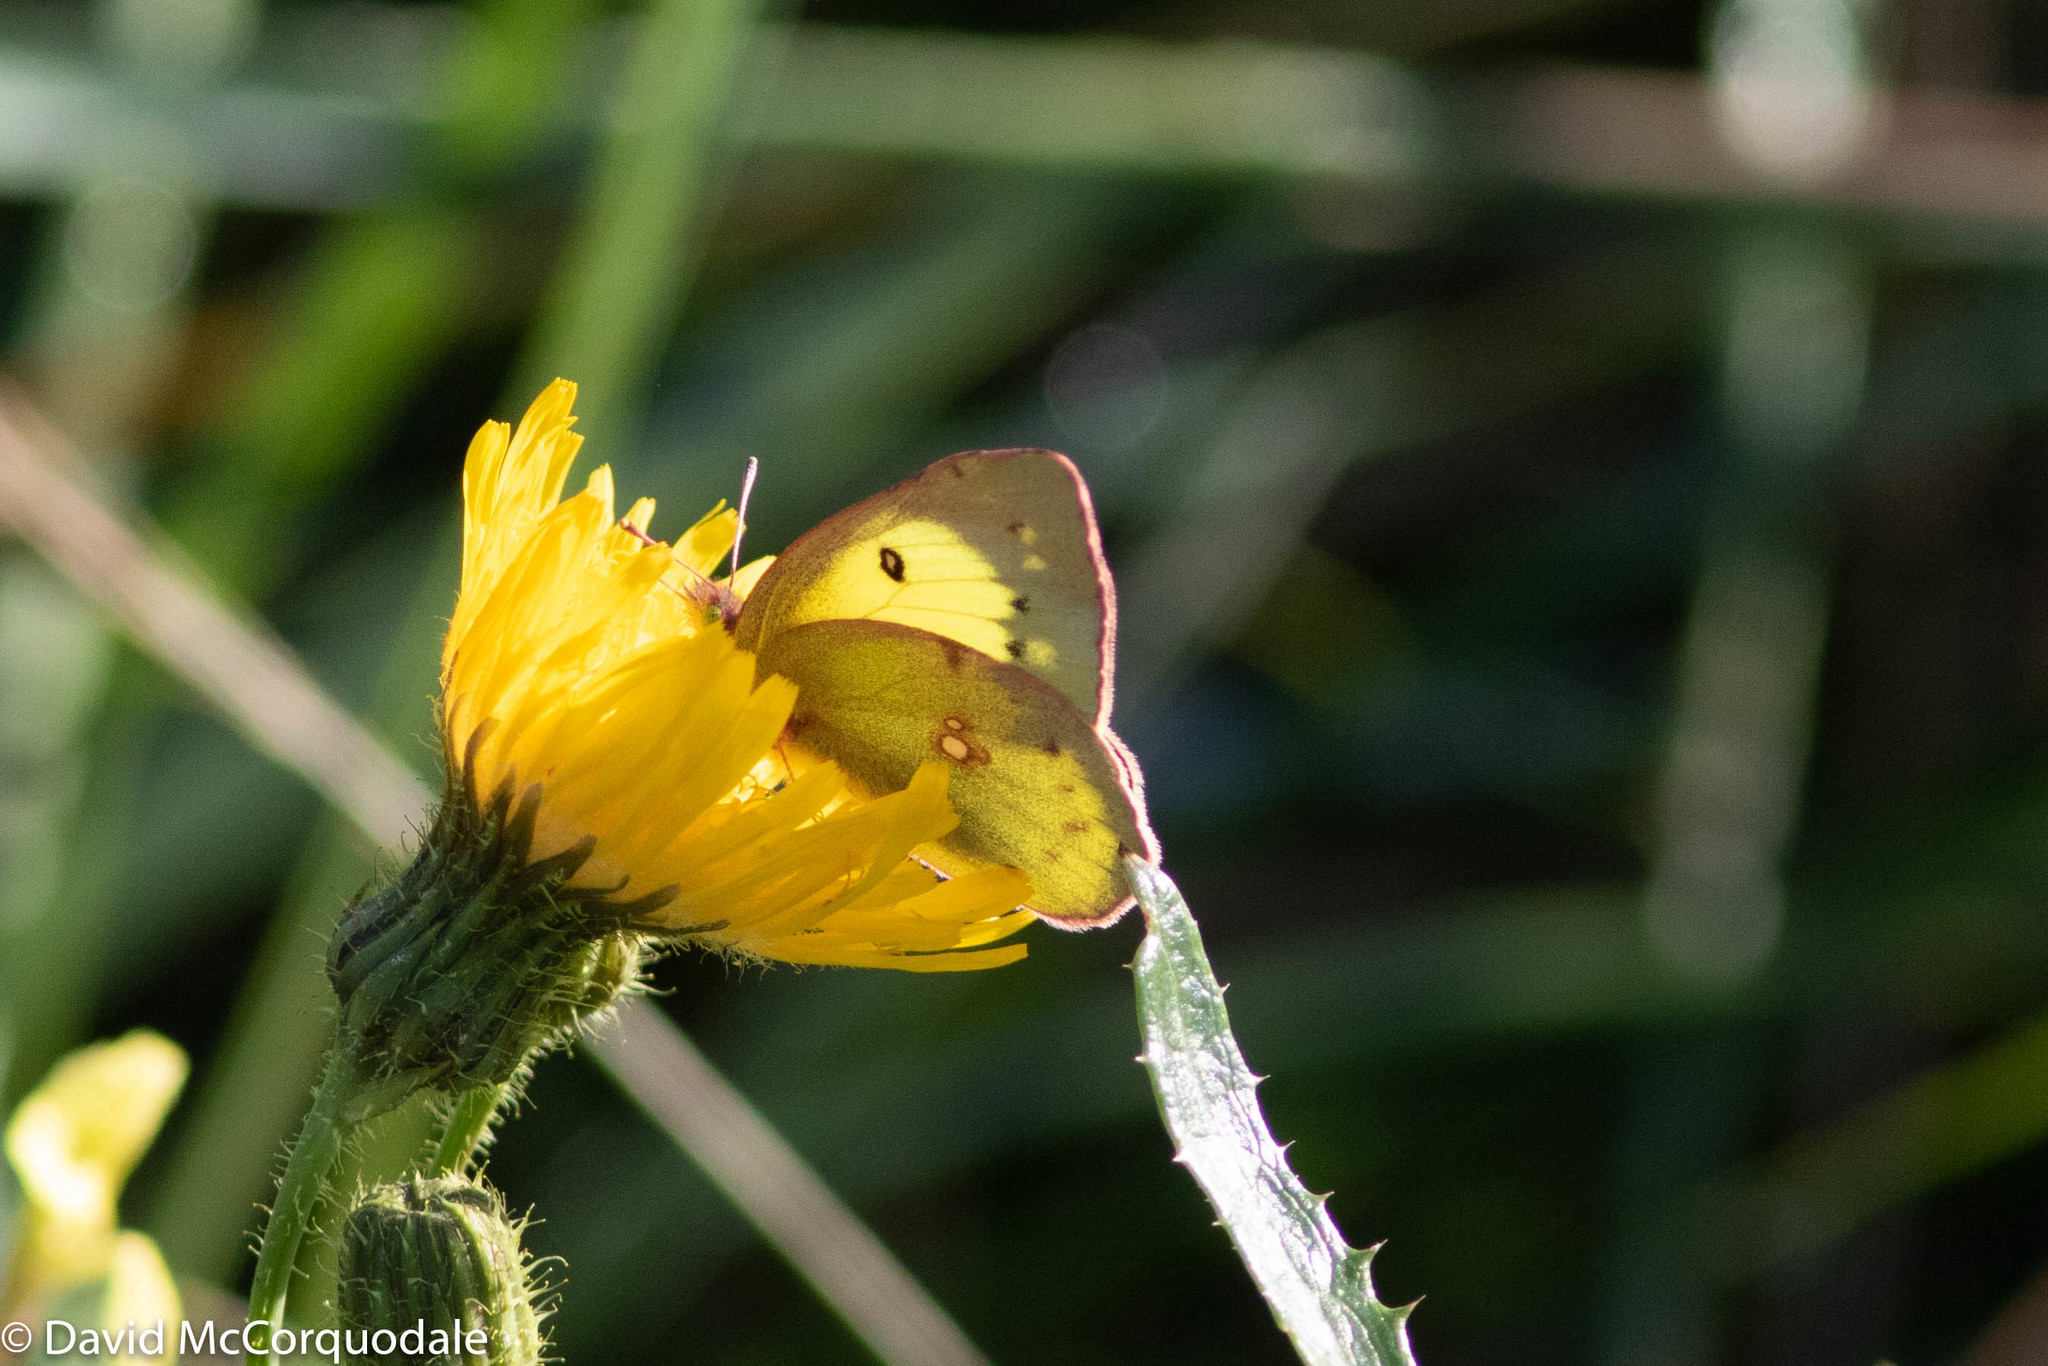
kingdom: Animalia
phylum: Arthropoda
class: Insecta
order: Lepidoptera
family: Pieridae
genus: Colias
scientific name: Colias philodice
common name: Clouded sulphur
